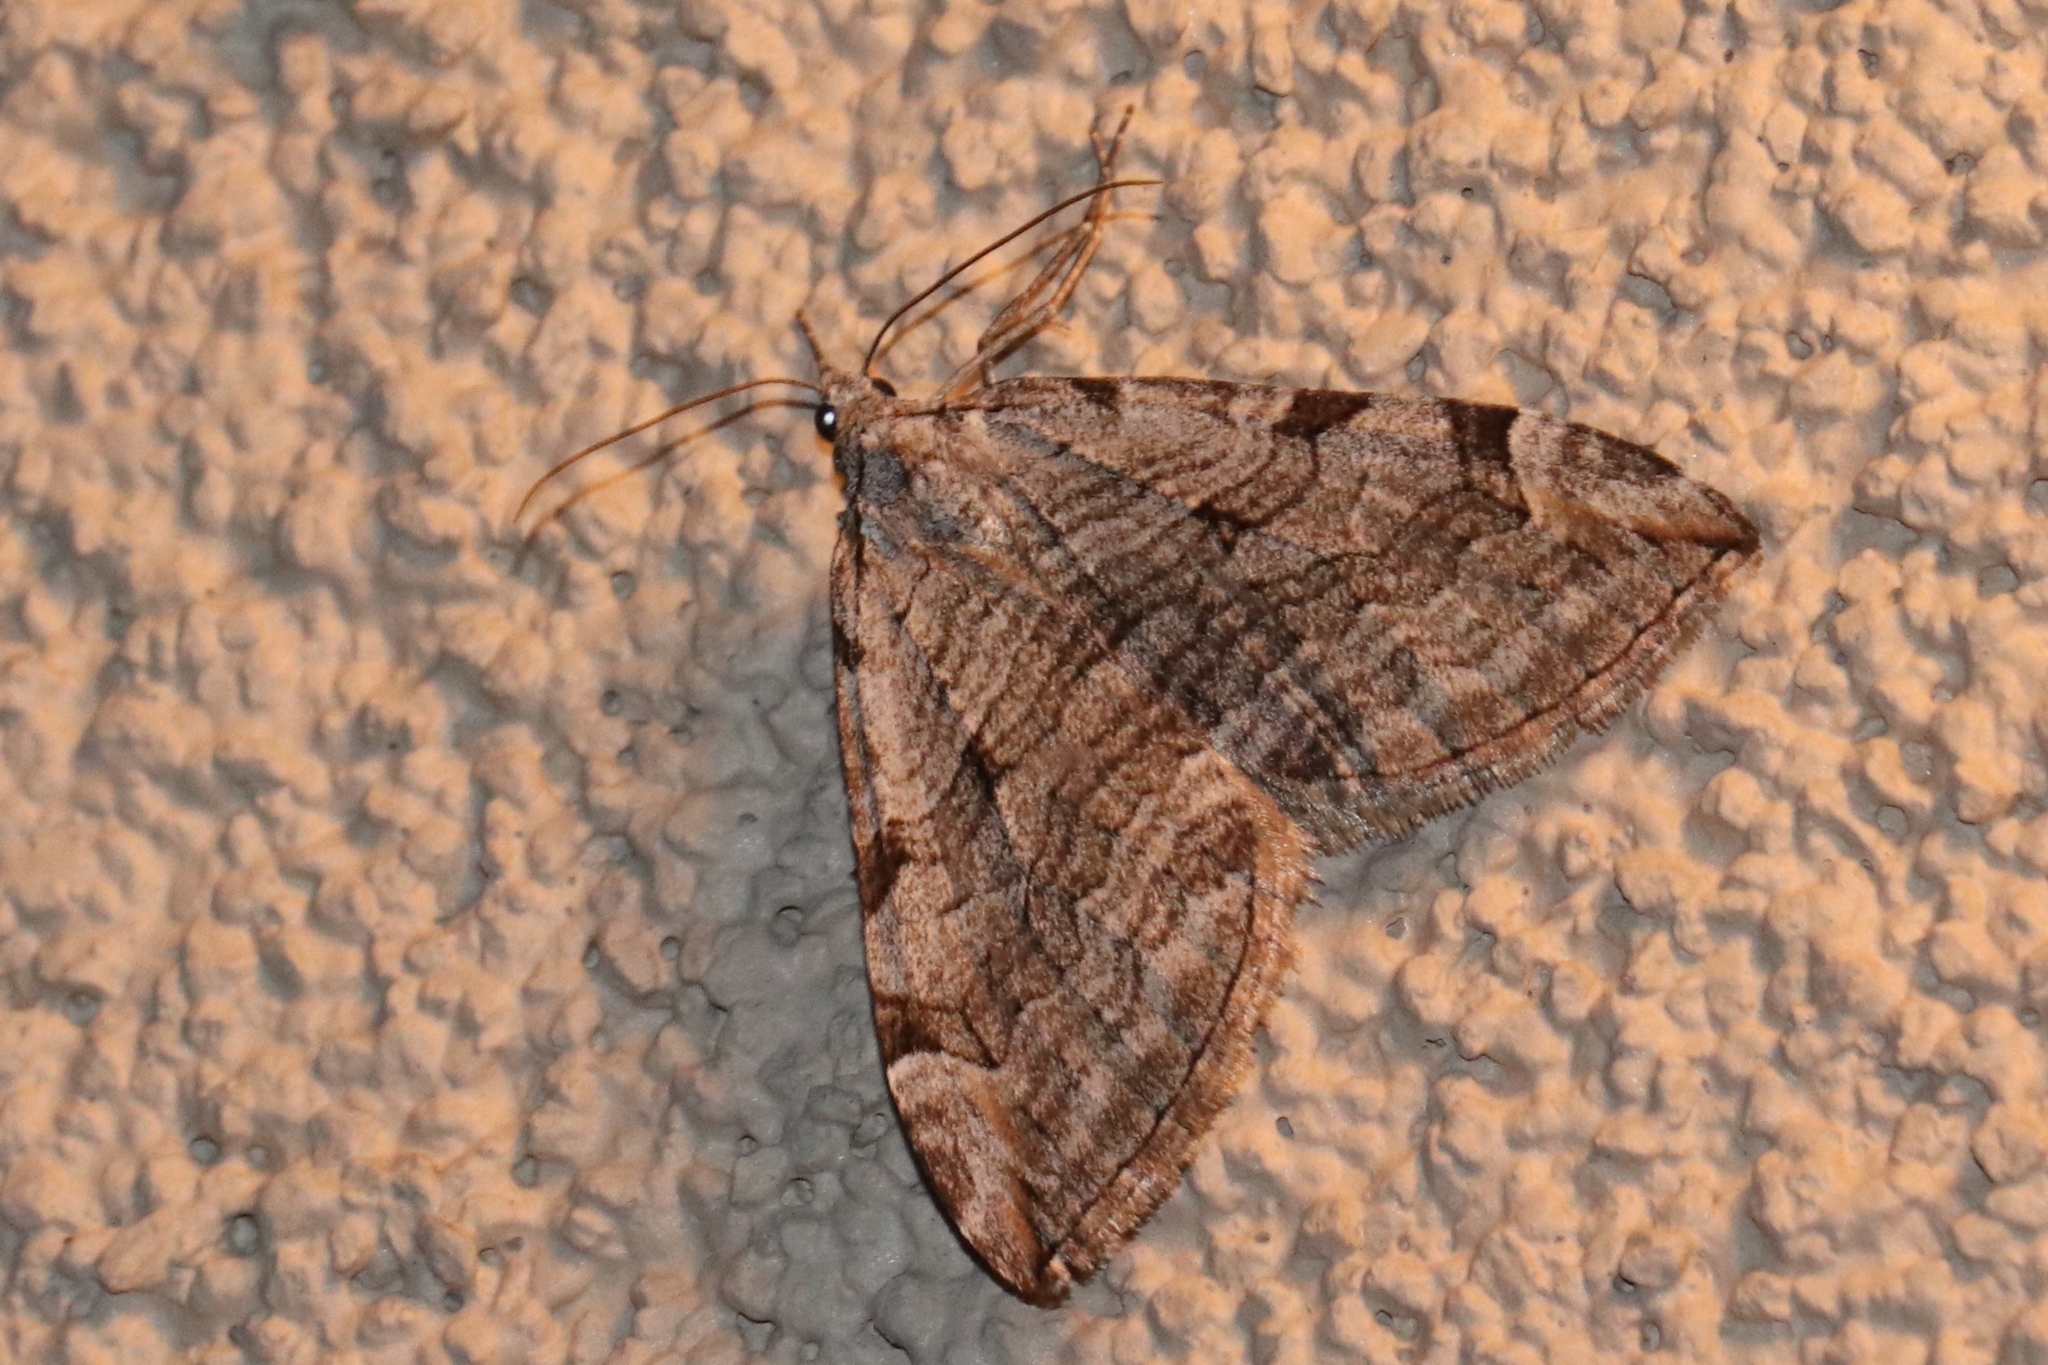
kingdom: Animalia
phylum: Arthropoda
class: Insecta
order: Lepidoptera
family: Geometridae
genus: Aplocera
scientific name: Aplocera plagiata
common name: Treble-bar
